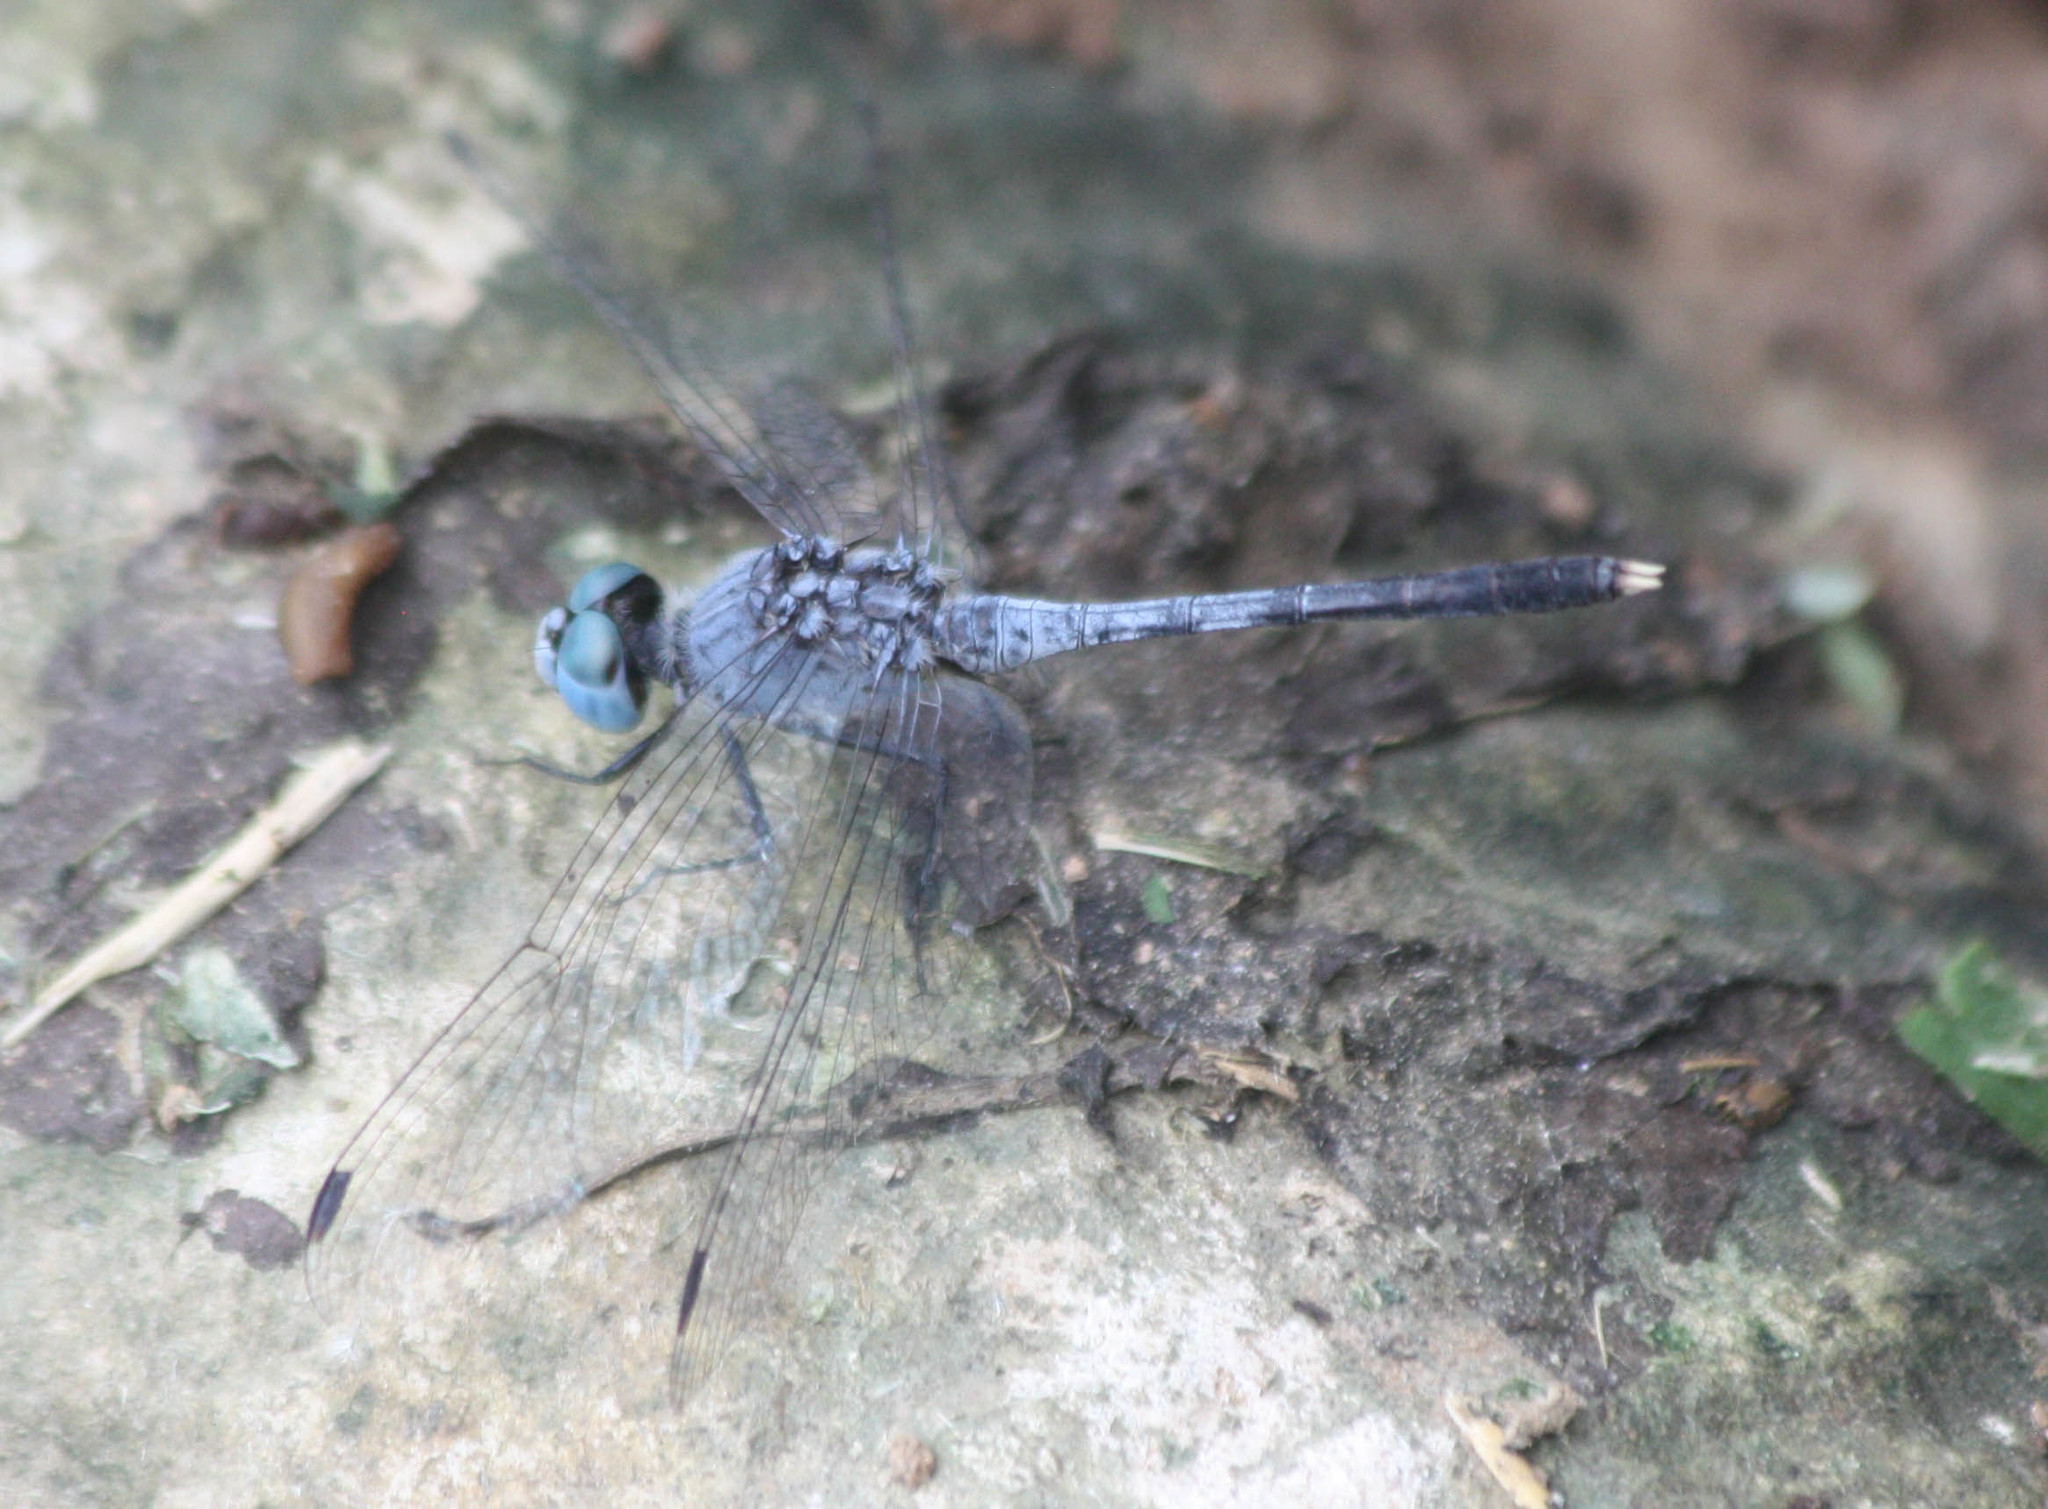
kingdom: Animalia
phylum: Arthropoda
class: Insecta
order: Odonata
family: Libellulidae
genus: Diplacodes
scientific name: Diplacodes trivialis
